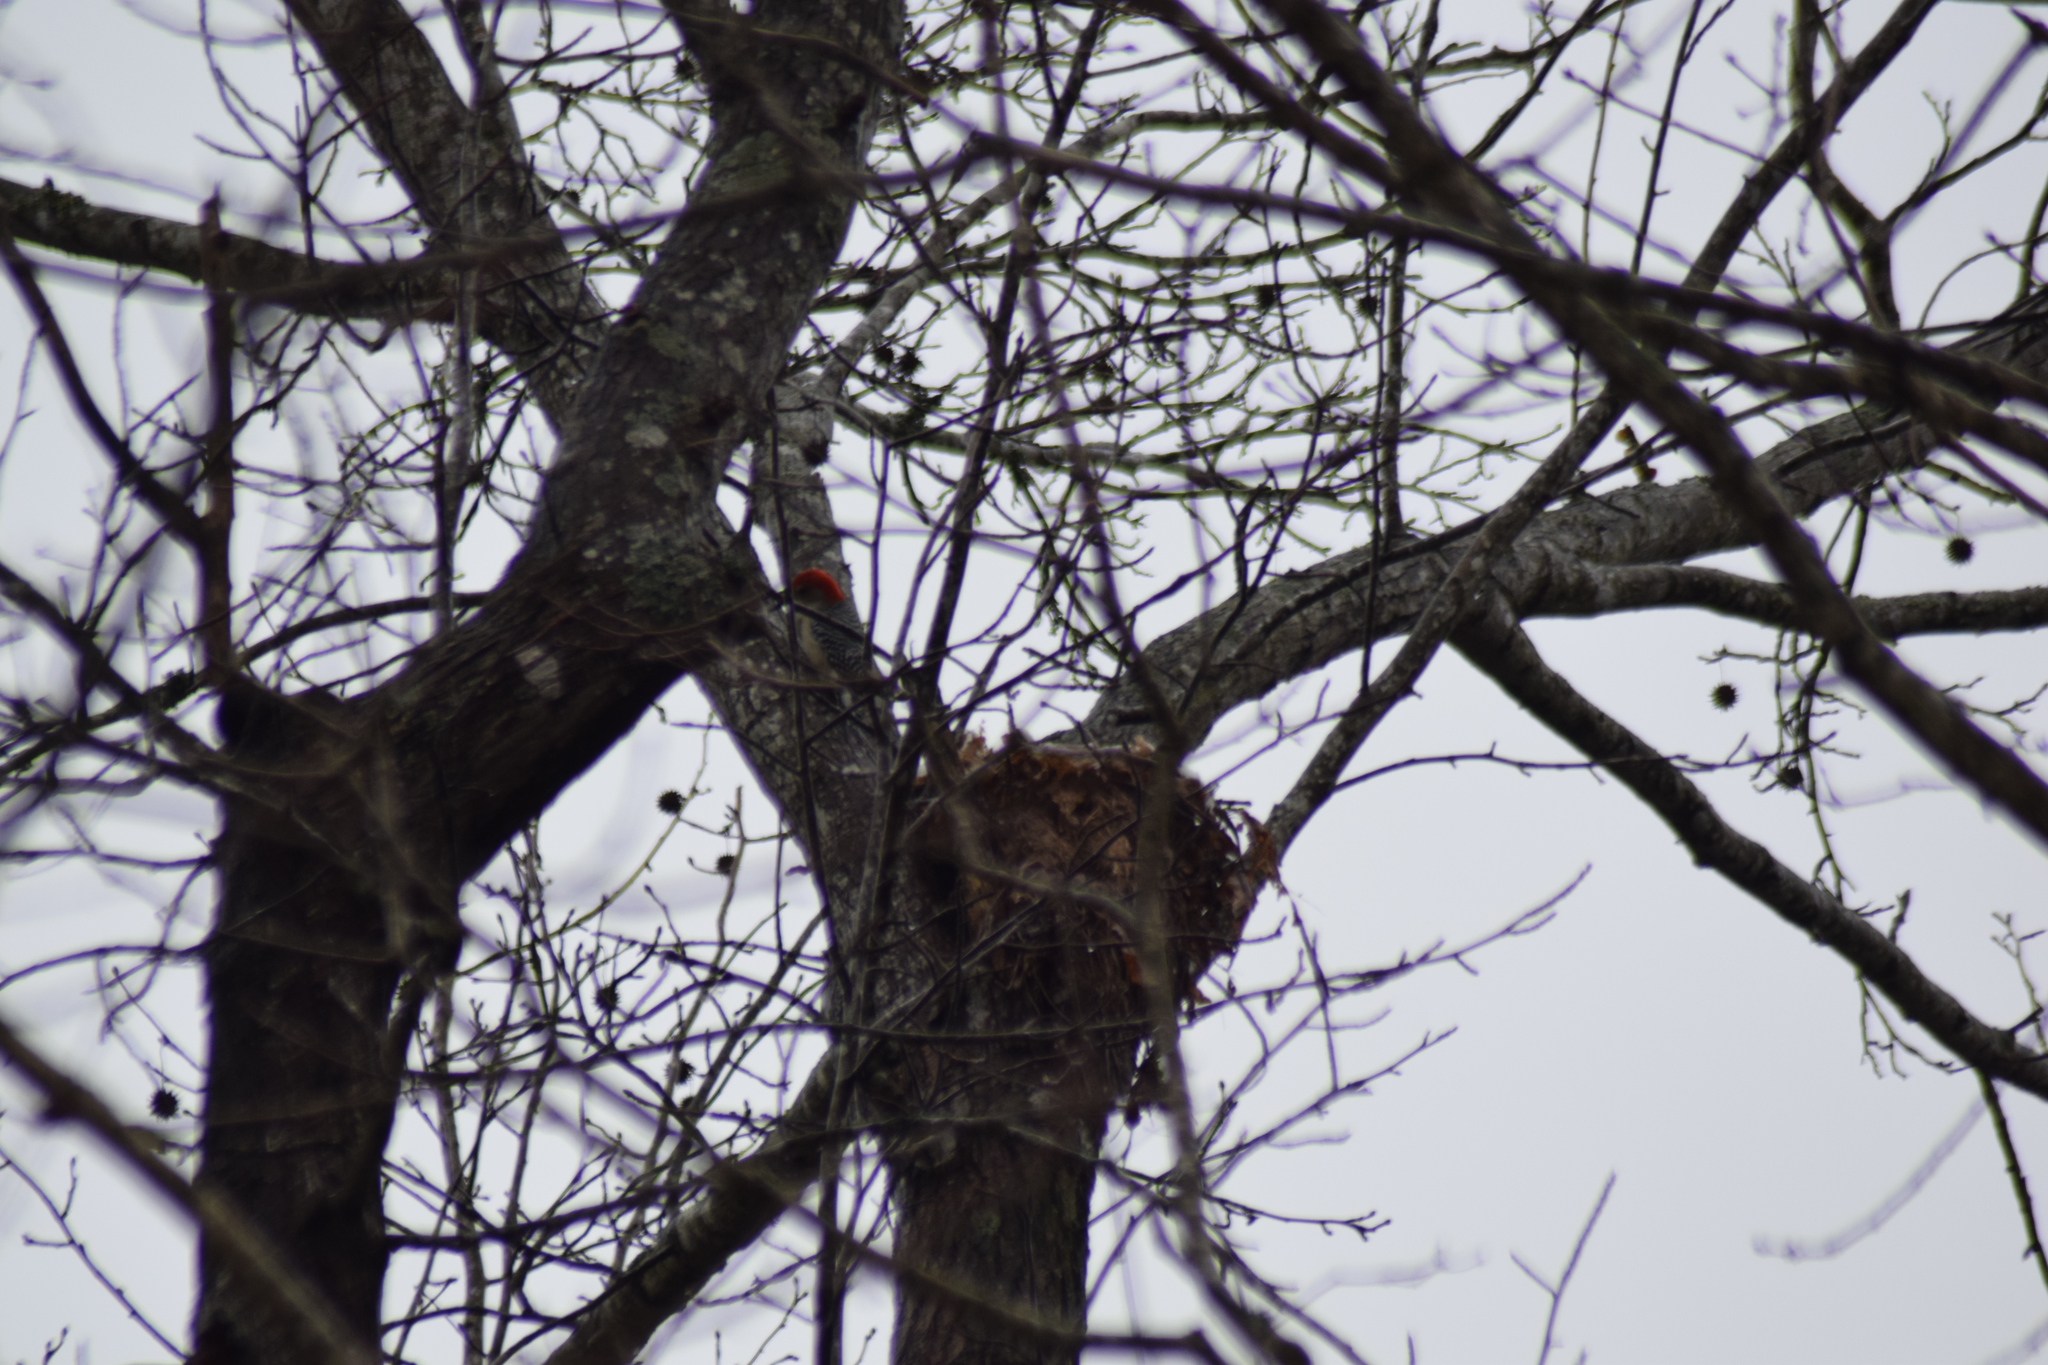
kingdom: Animalia
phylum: Chordata
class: Aves
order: Piciformes
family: Picidae
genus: Melanerpes
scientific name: Melanerpes carolinus
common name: Red-bellied woodpecker
